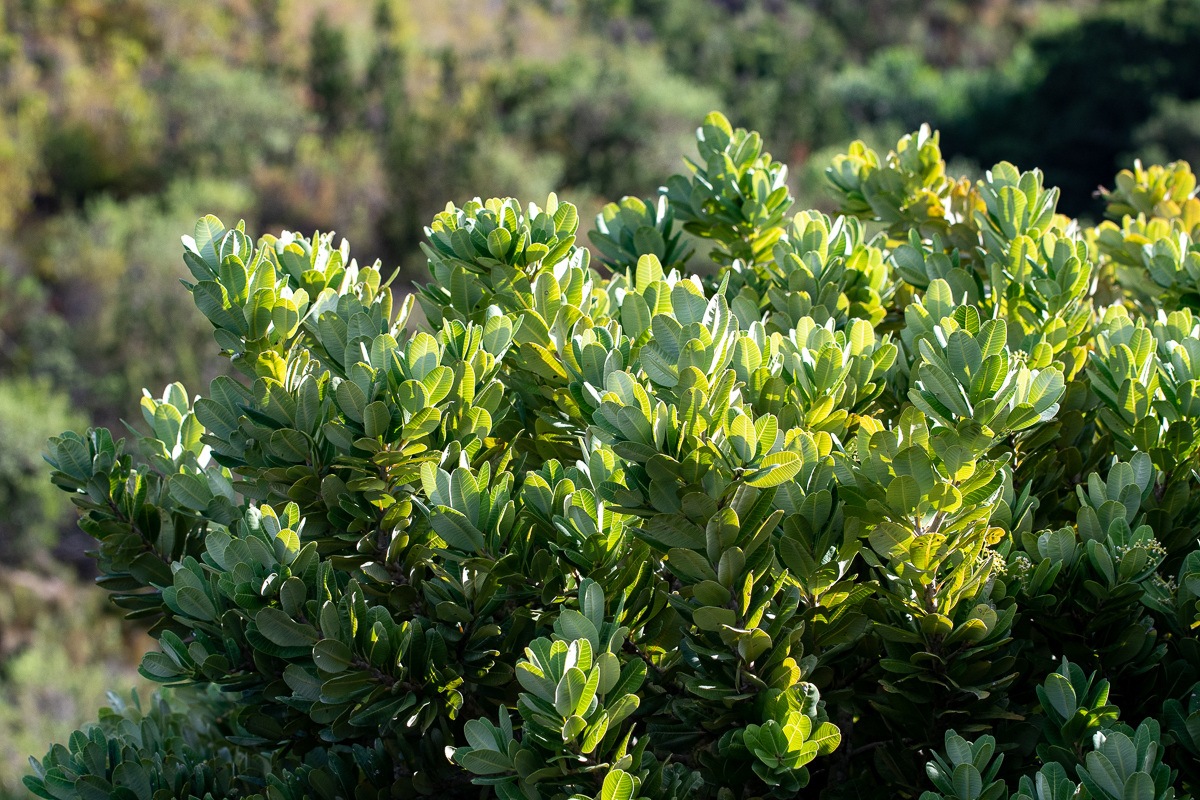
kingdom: Plantae
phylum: Tracheophyta
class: Magnoliopsida
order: Sapindales
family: Anacardiaceae
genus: Heeria
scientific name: Heeria argentea
